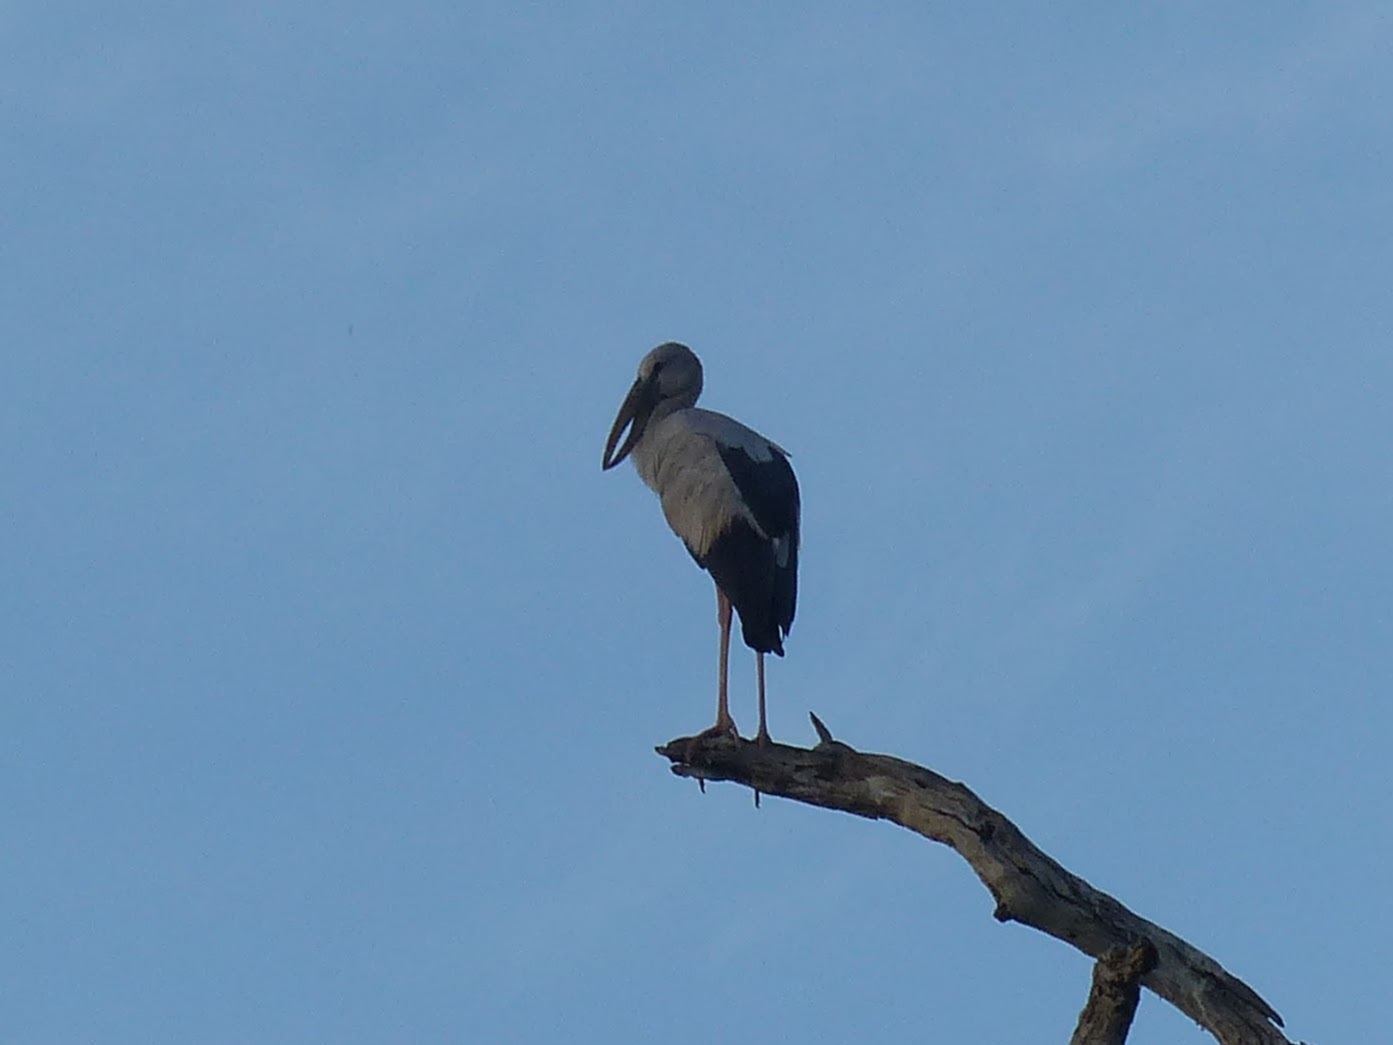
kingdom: Animalia
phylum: Chordata
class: Aves
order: Ciconiiformes
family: Ciconiidae
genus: Anastomus
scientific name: Anastomus oscitans
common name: Asian openbill
